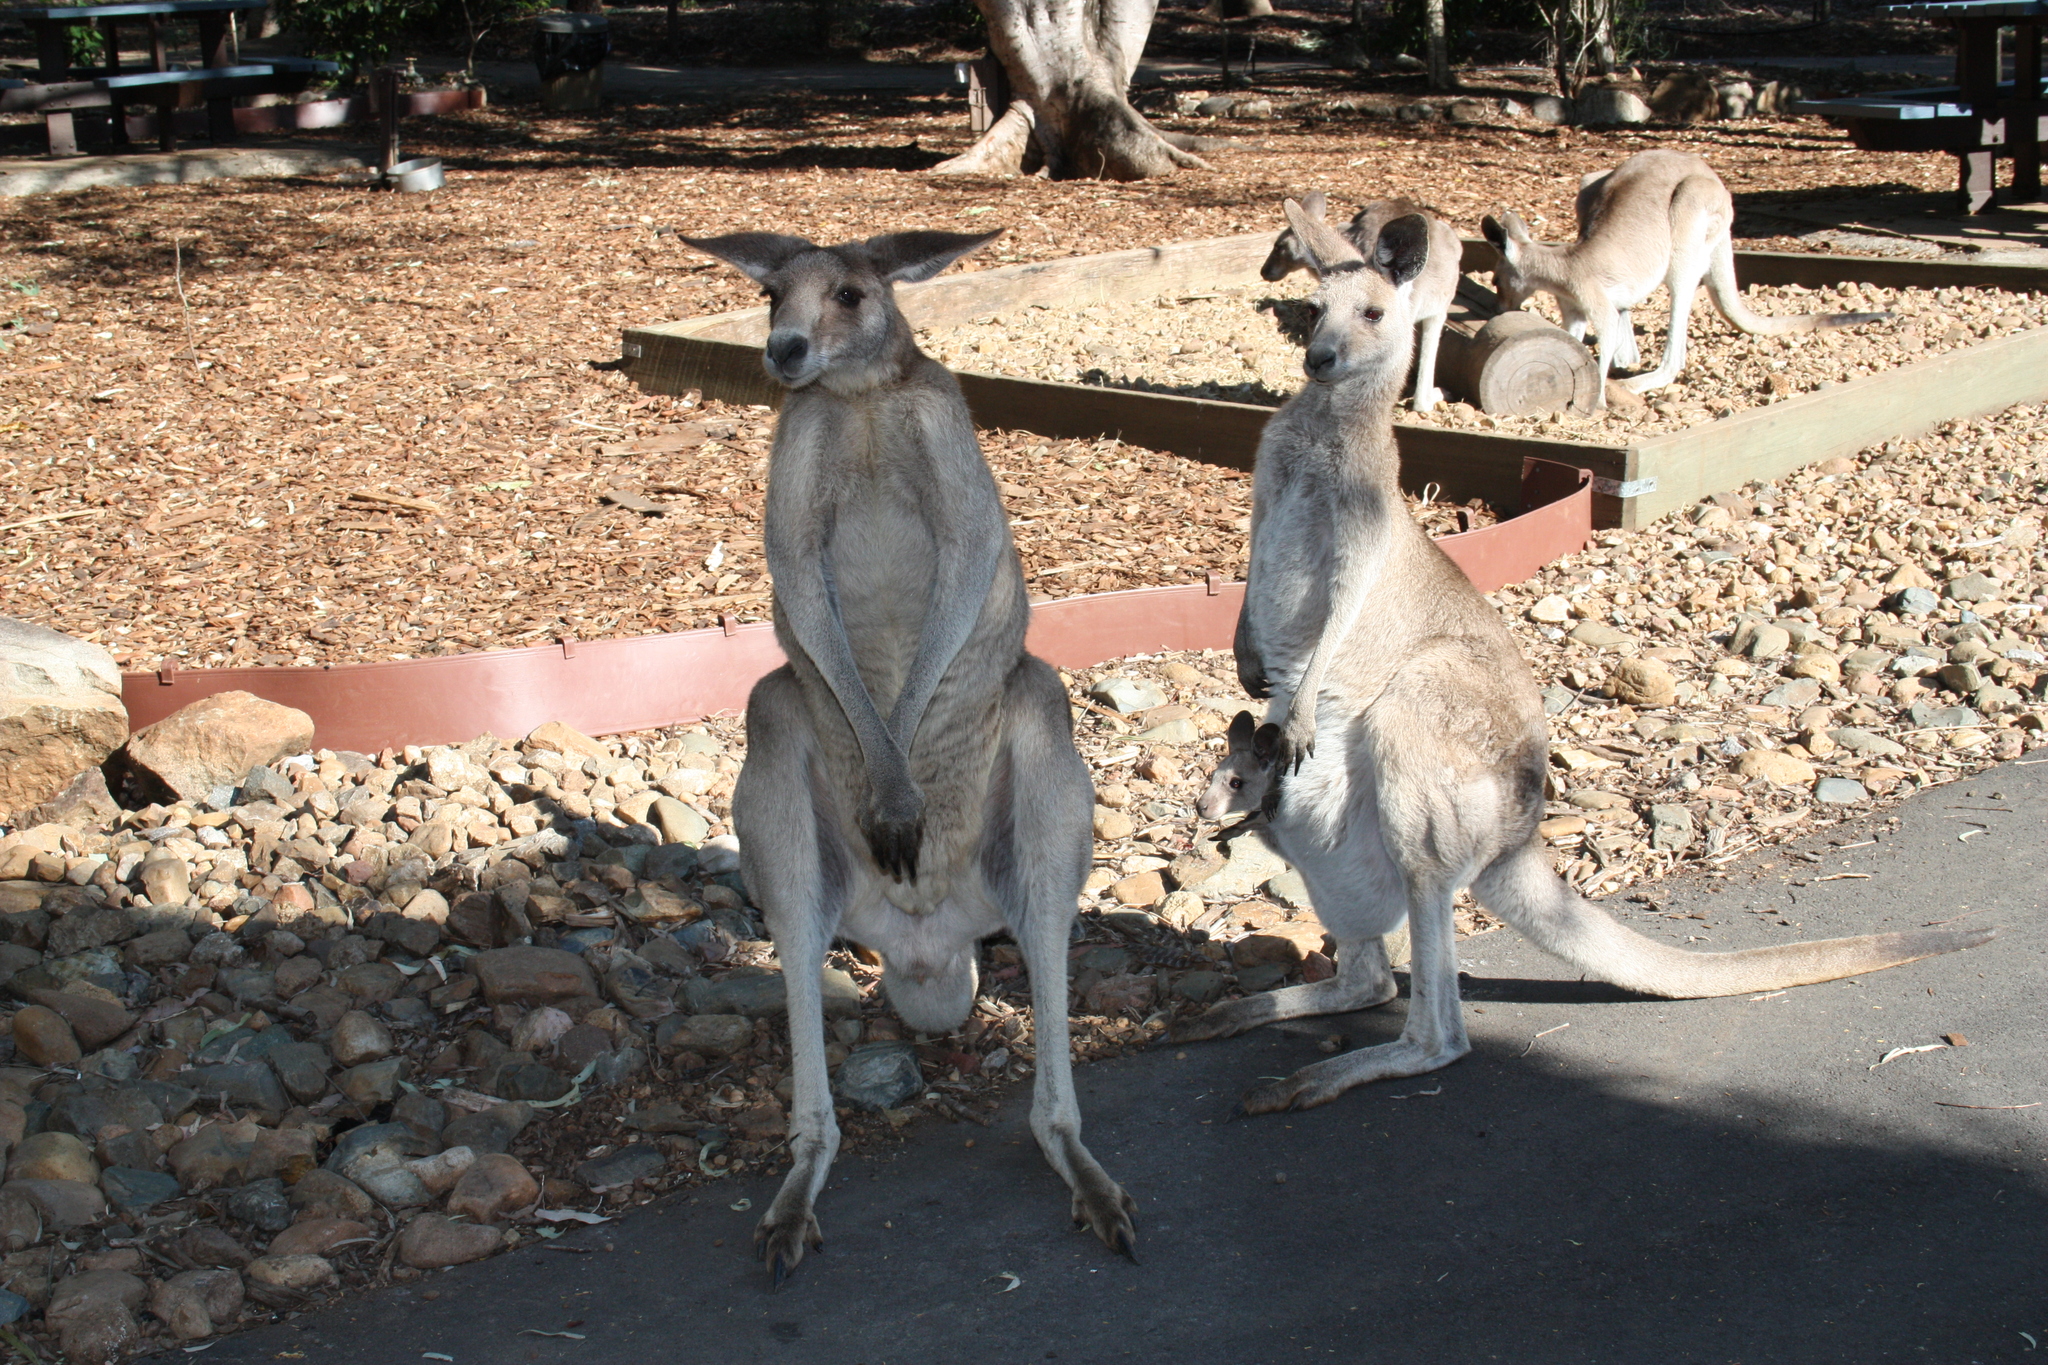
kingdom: Animalia
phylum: Chordata
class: Mammalia
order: Diprotodontia
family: Macropodidae
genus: Macropus
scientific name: Macropus giganteus
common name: Eastern grey kangaroo
